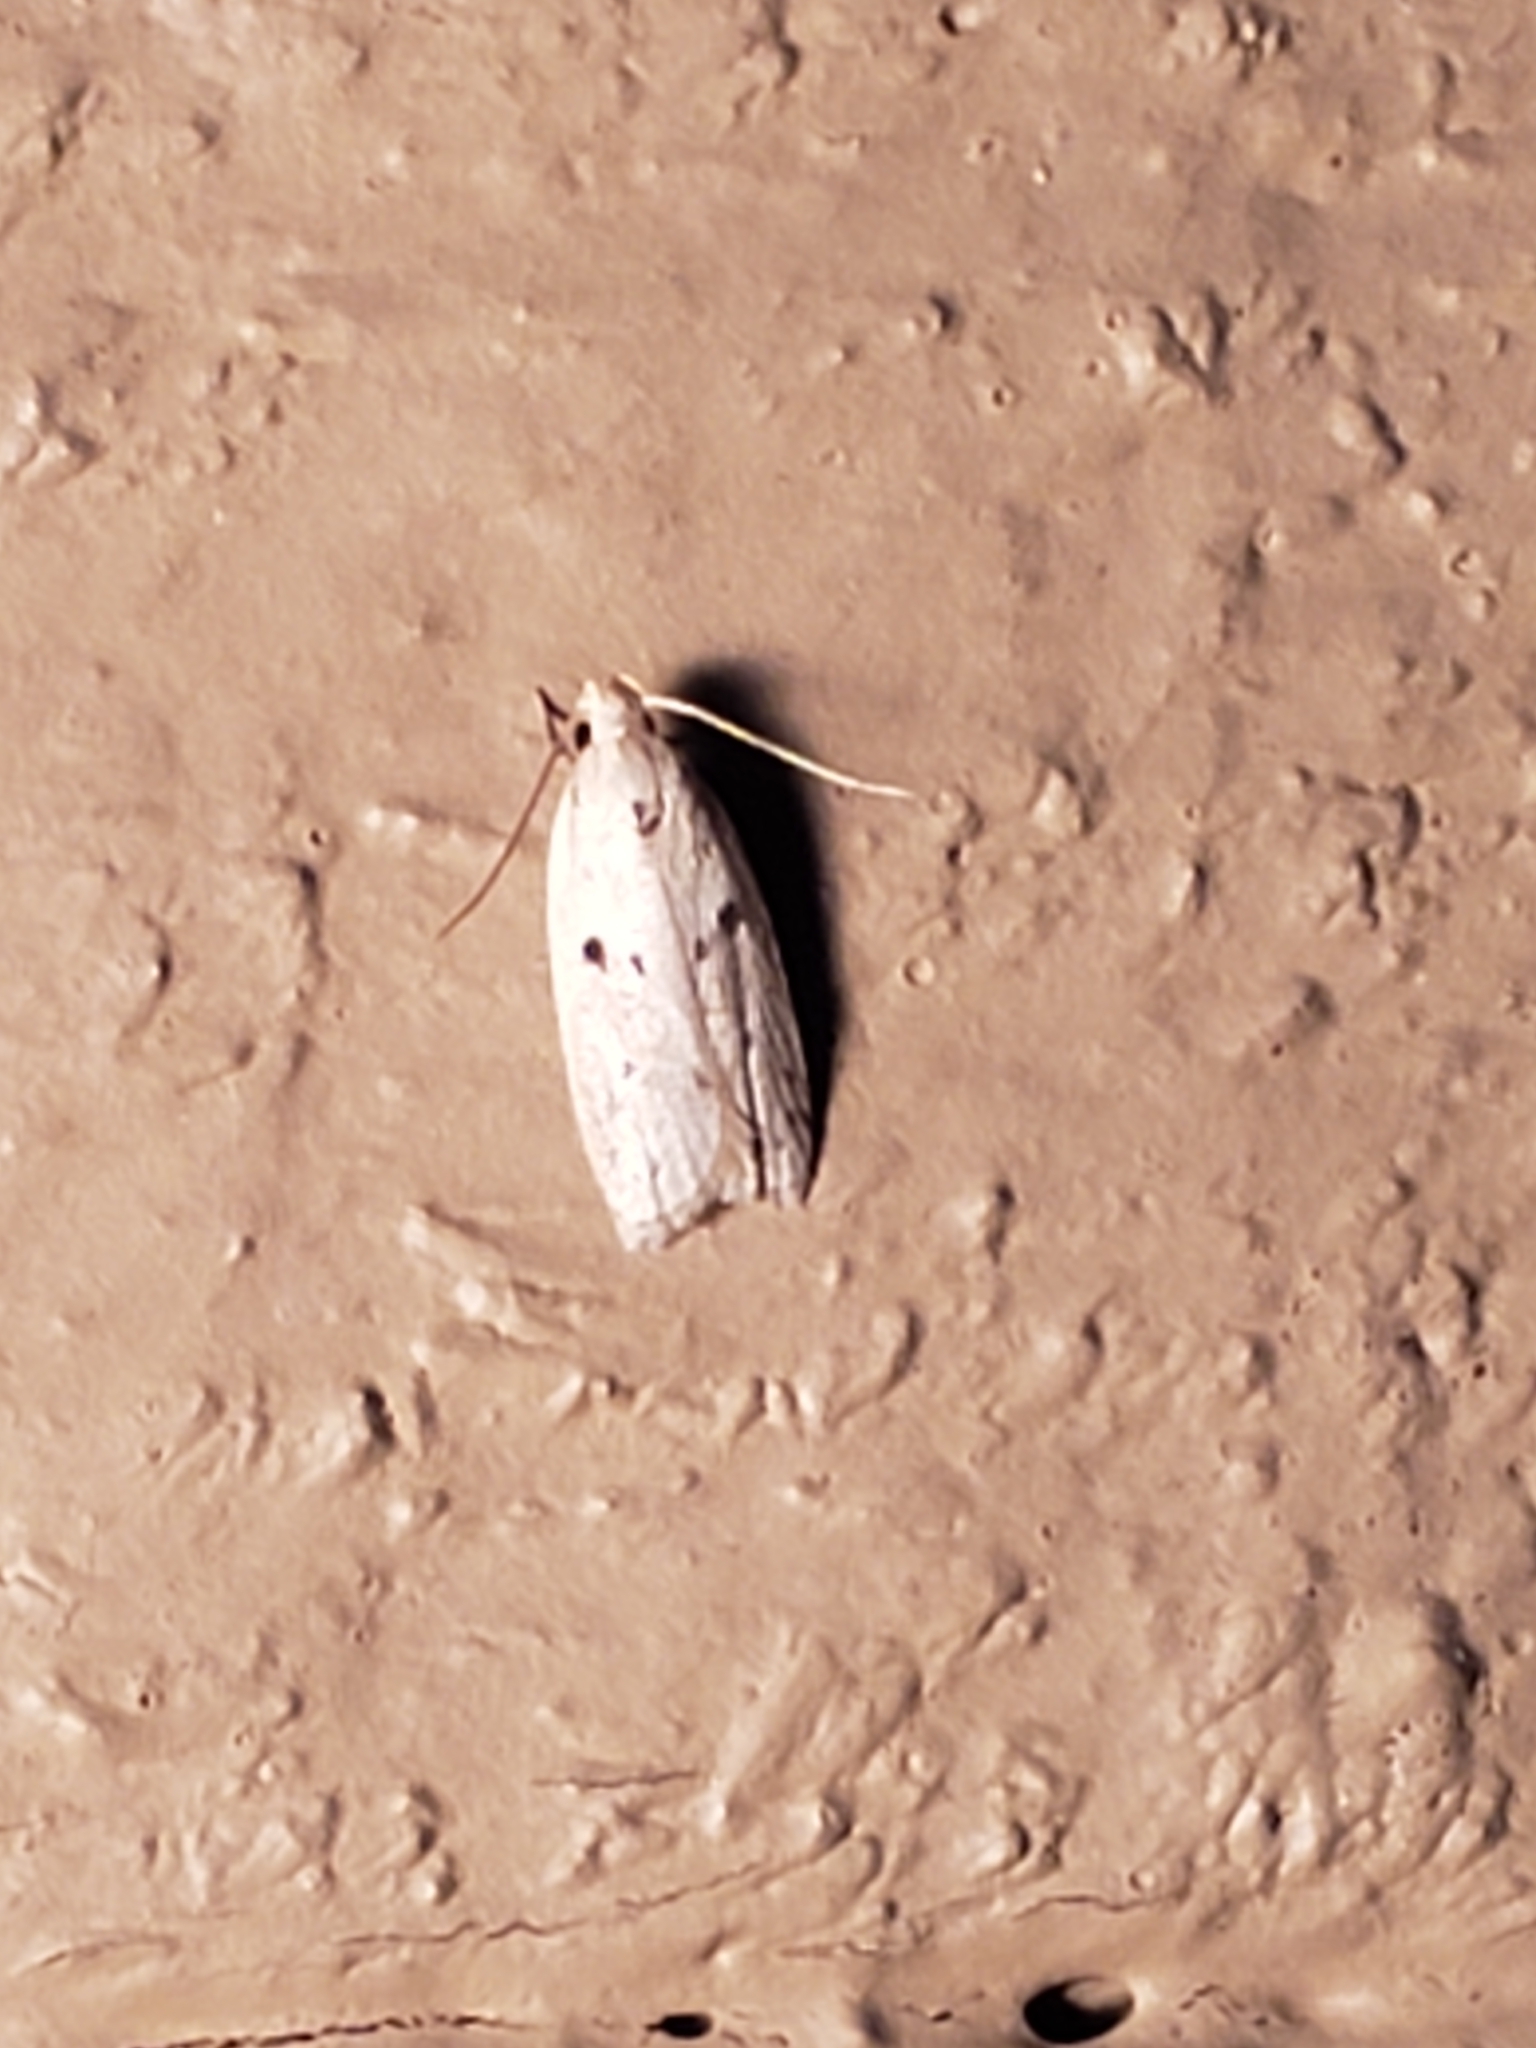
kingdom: Animalia
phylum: Arthropoda
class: Insecta
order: Lepidoptera
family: Peleopodidae
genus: Scythropiodes
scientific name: Scythropiodes issikii
